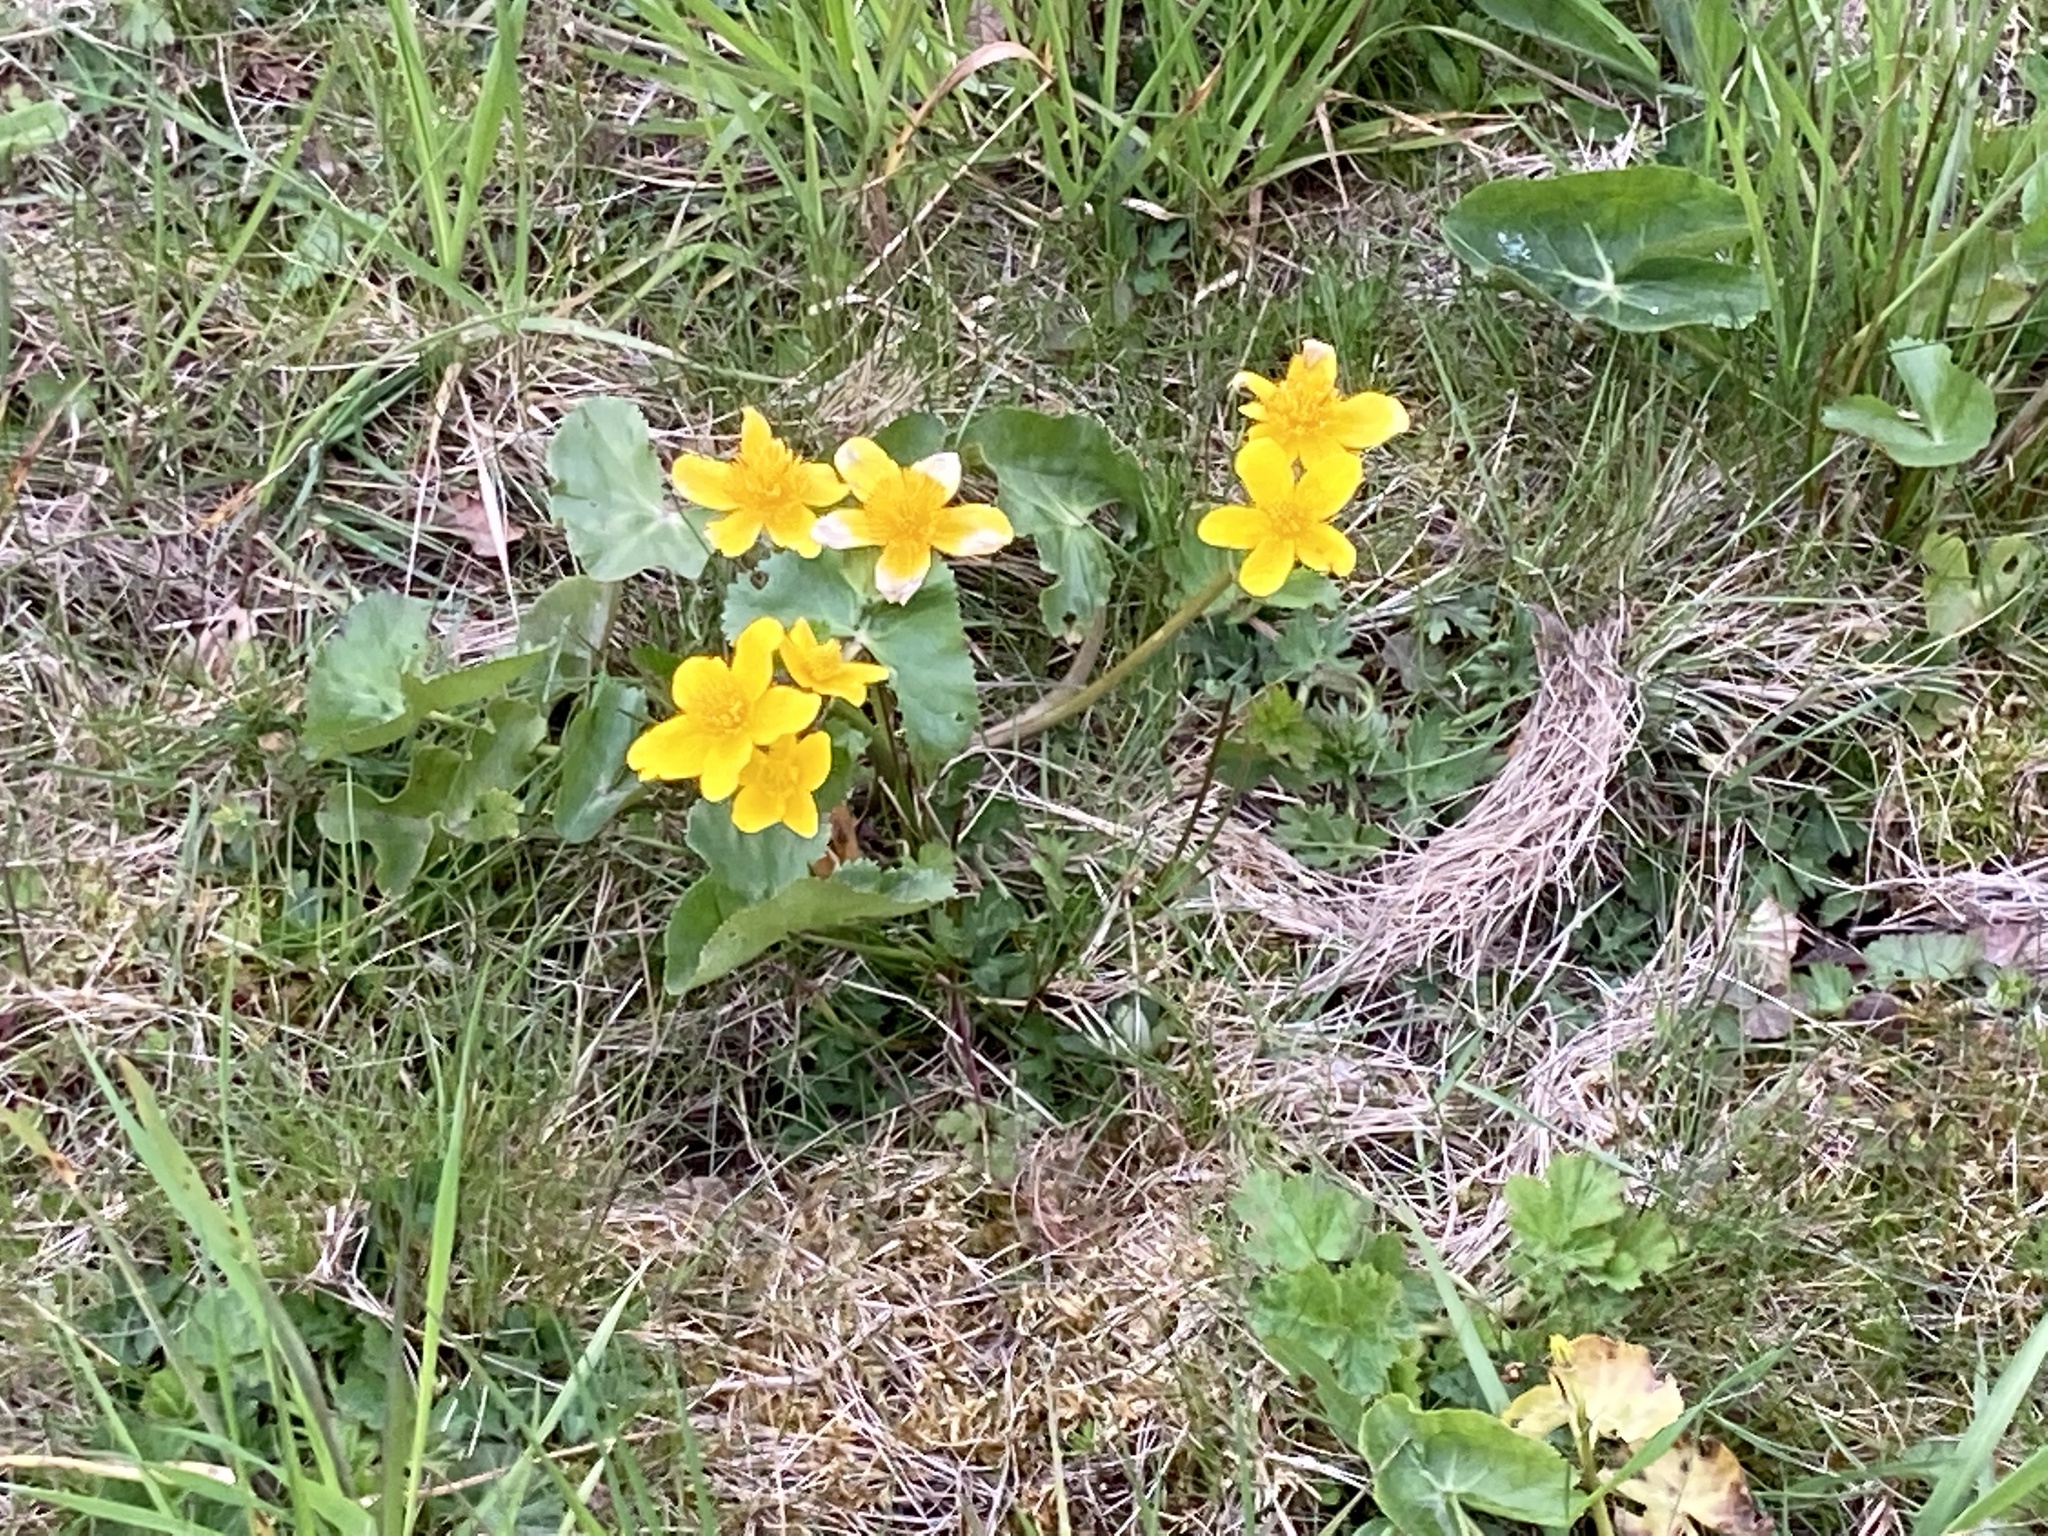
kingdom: Plantae
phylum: Tracheophyta
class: Magnoliopsida
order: Ranunculales
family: Ranunculaceae
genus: Caltha
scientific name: Caltha palustris
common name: Marsh marigold
